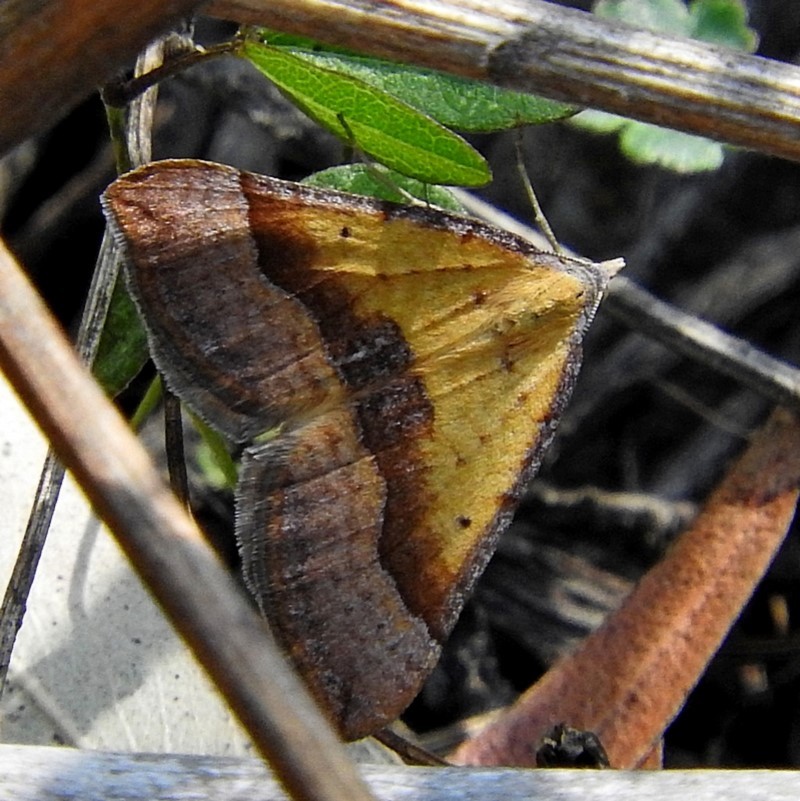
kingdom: Animalia
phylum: Arthropoda
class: Insecta
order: Lepidoptera
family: Geometridae
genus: Anachloris
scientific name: Anachloris subochraria
